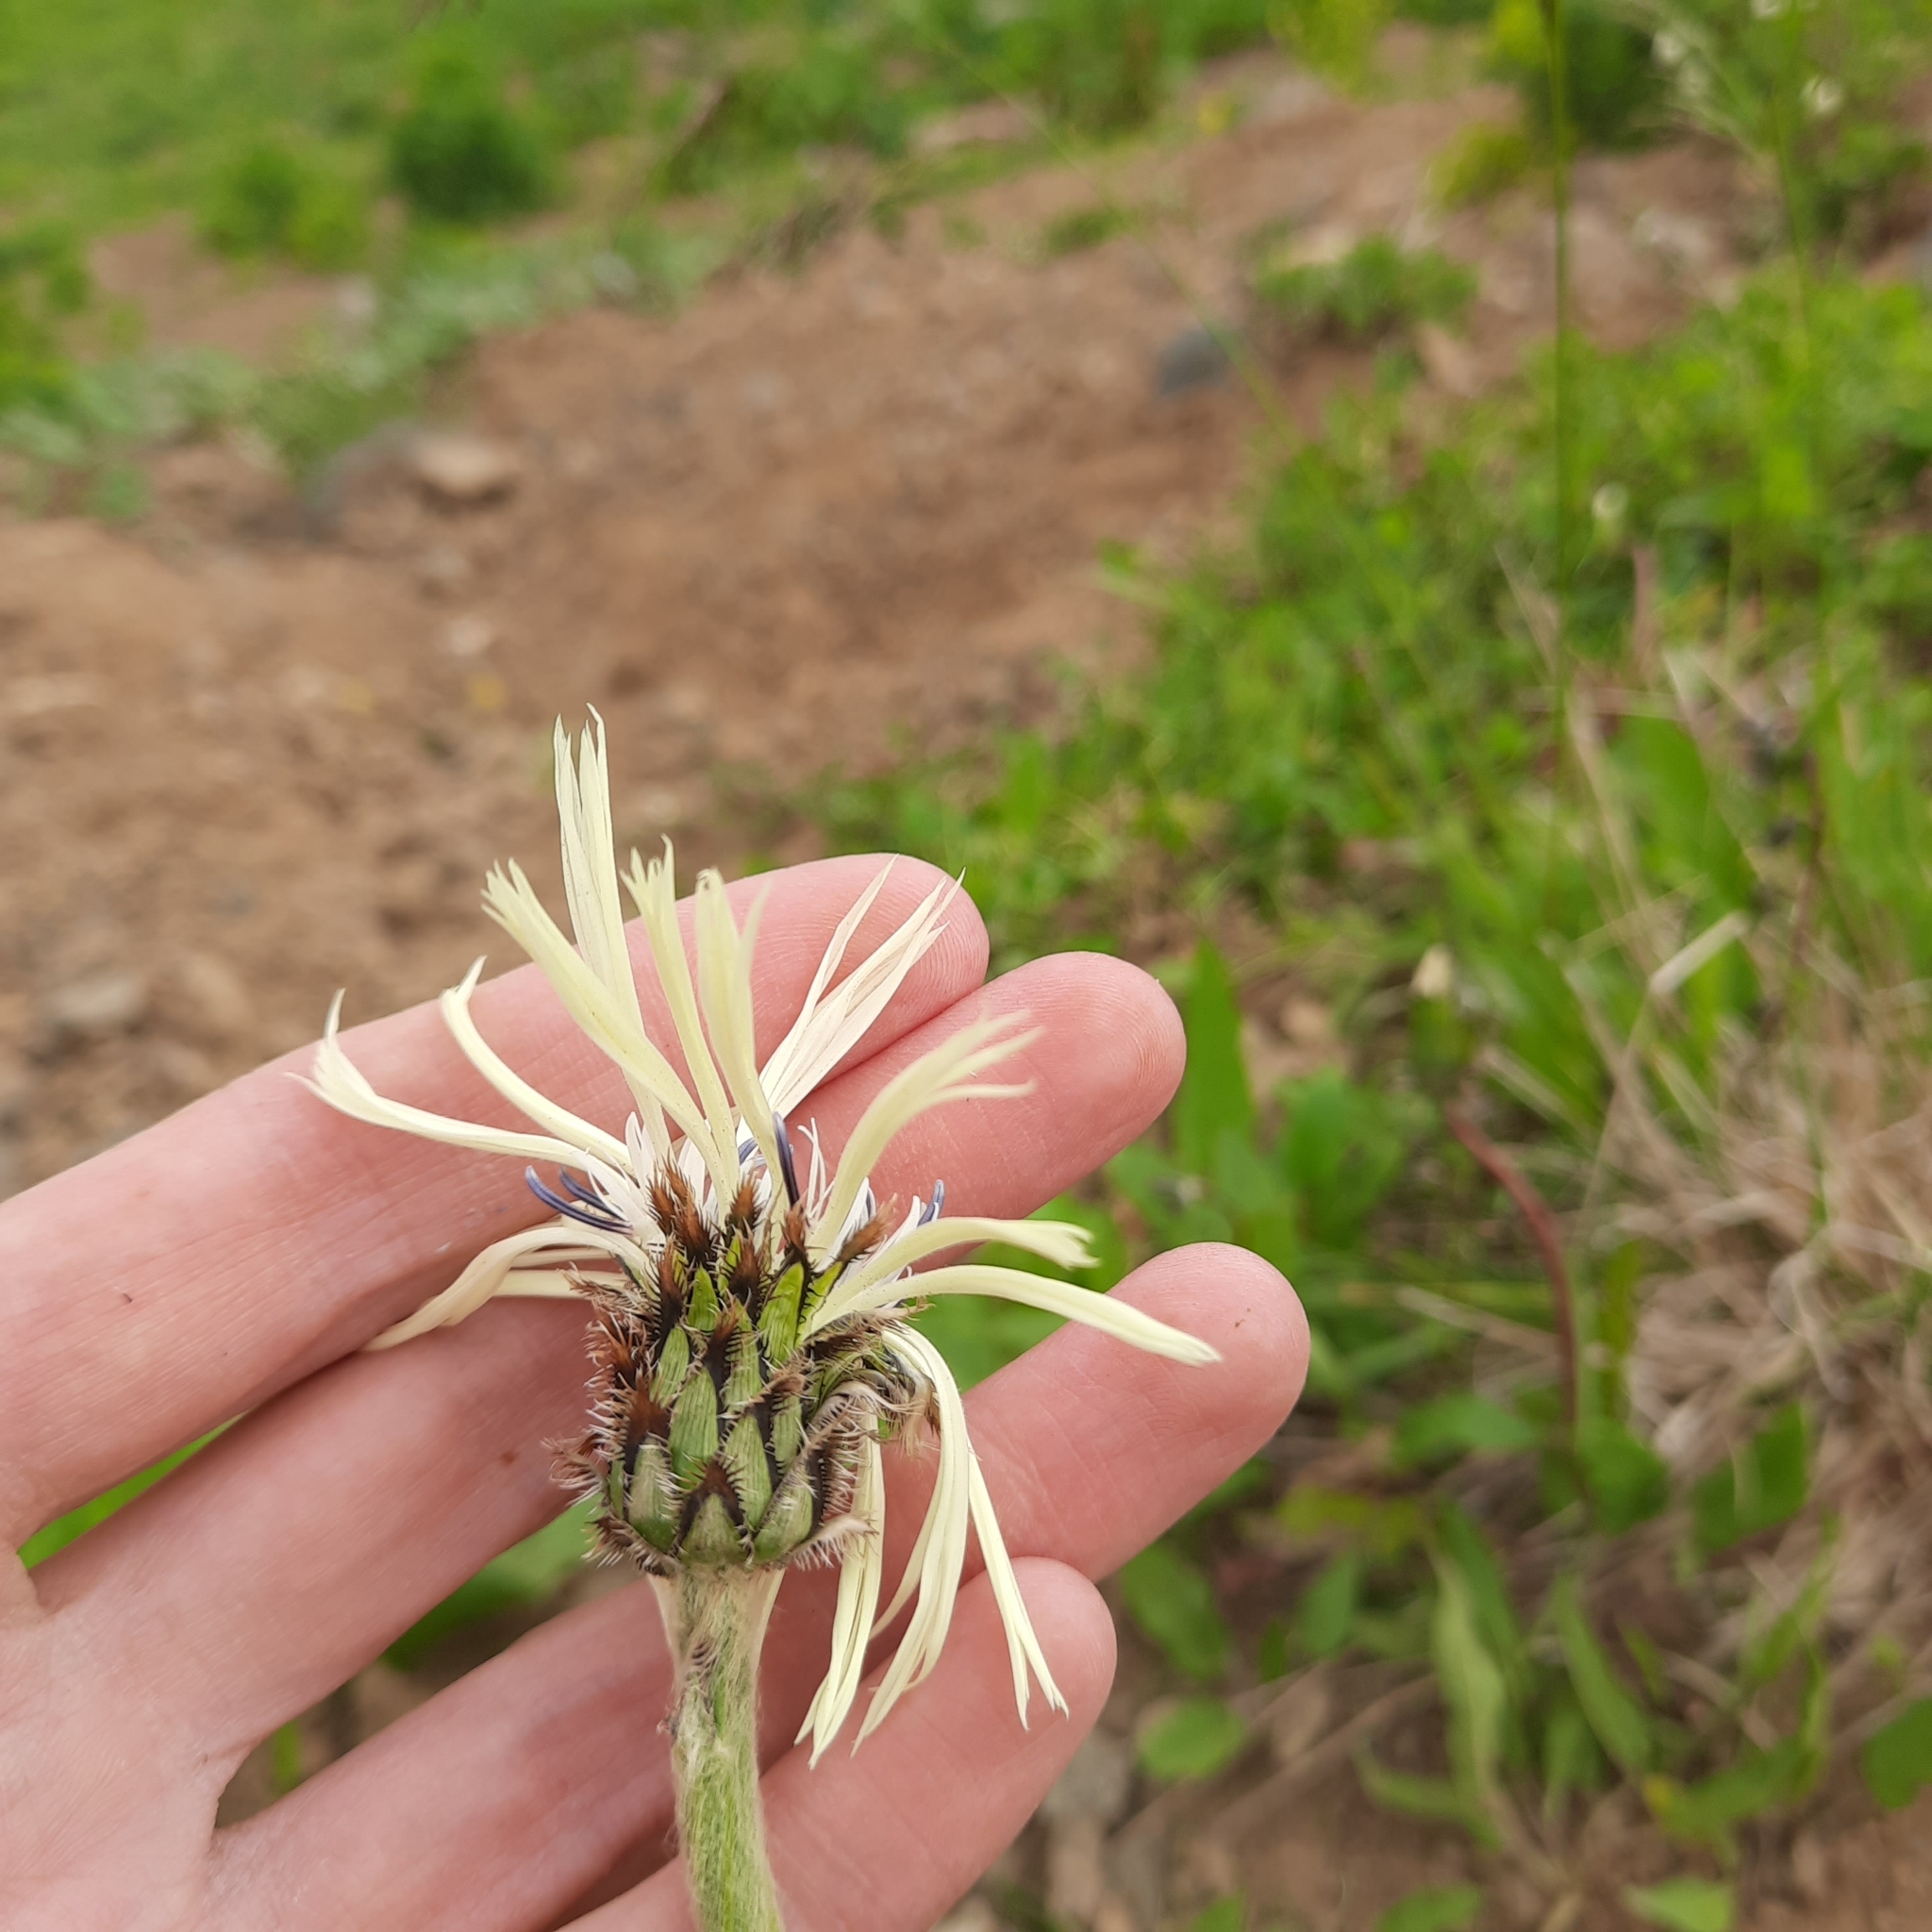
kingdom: Plantae
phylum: Tracheophyta
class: Magnoliopsida
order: Asterales
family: Asteraceae
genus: Centaurea
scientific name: Centaurea cheiranthifolia
